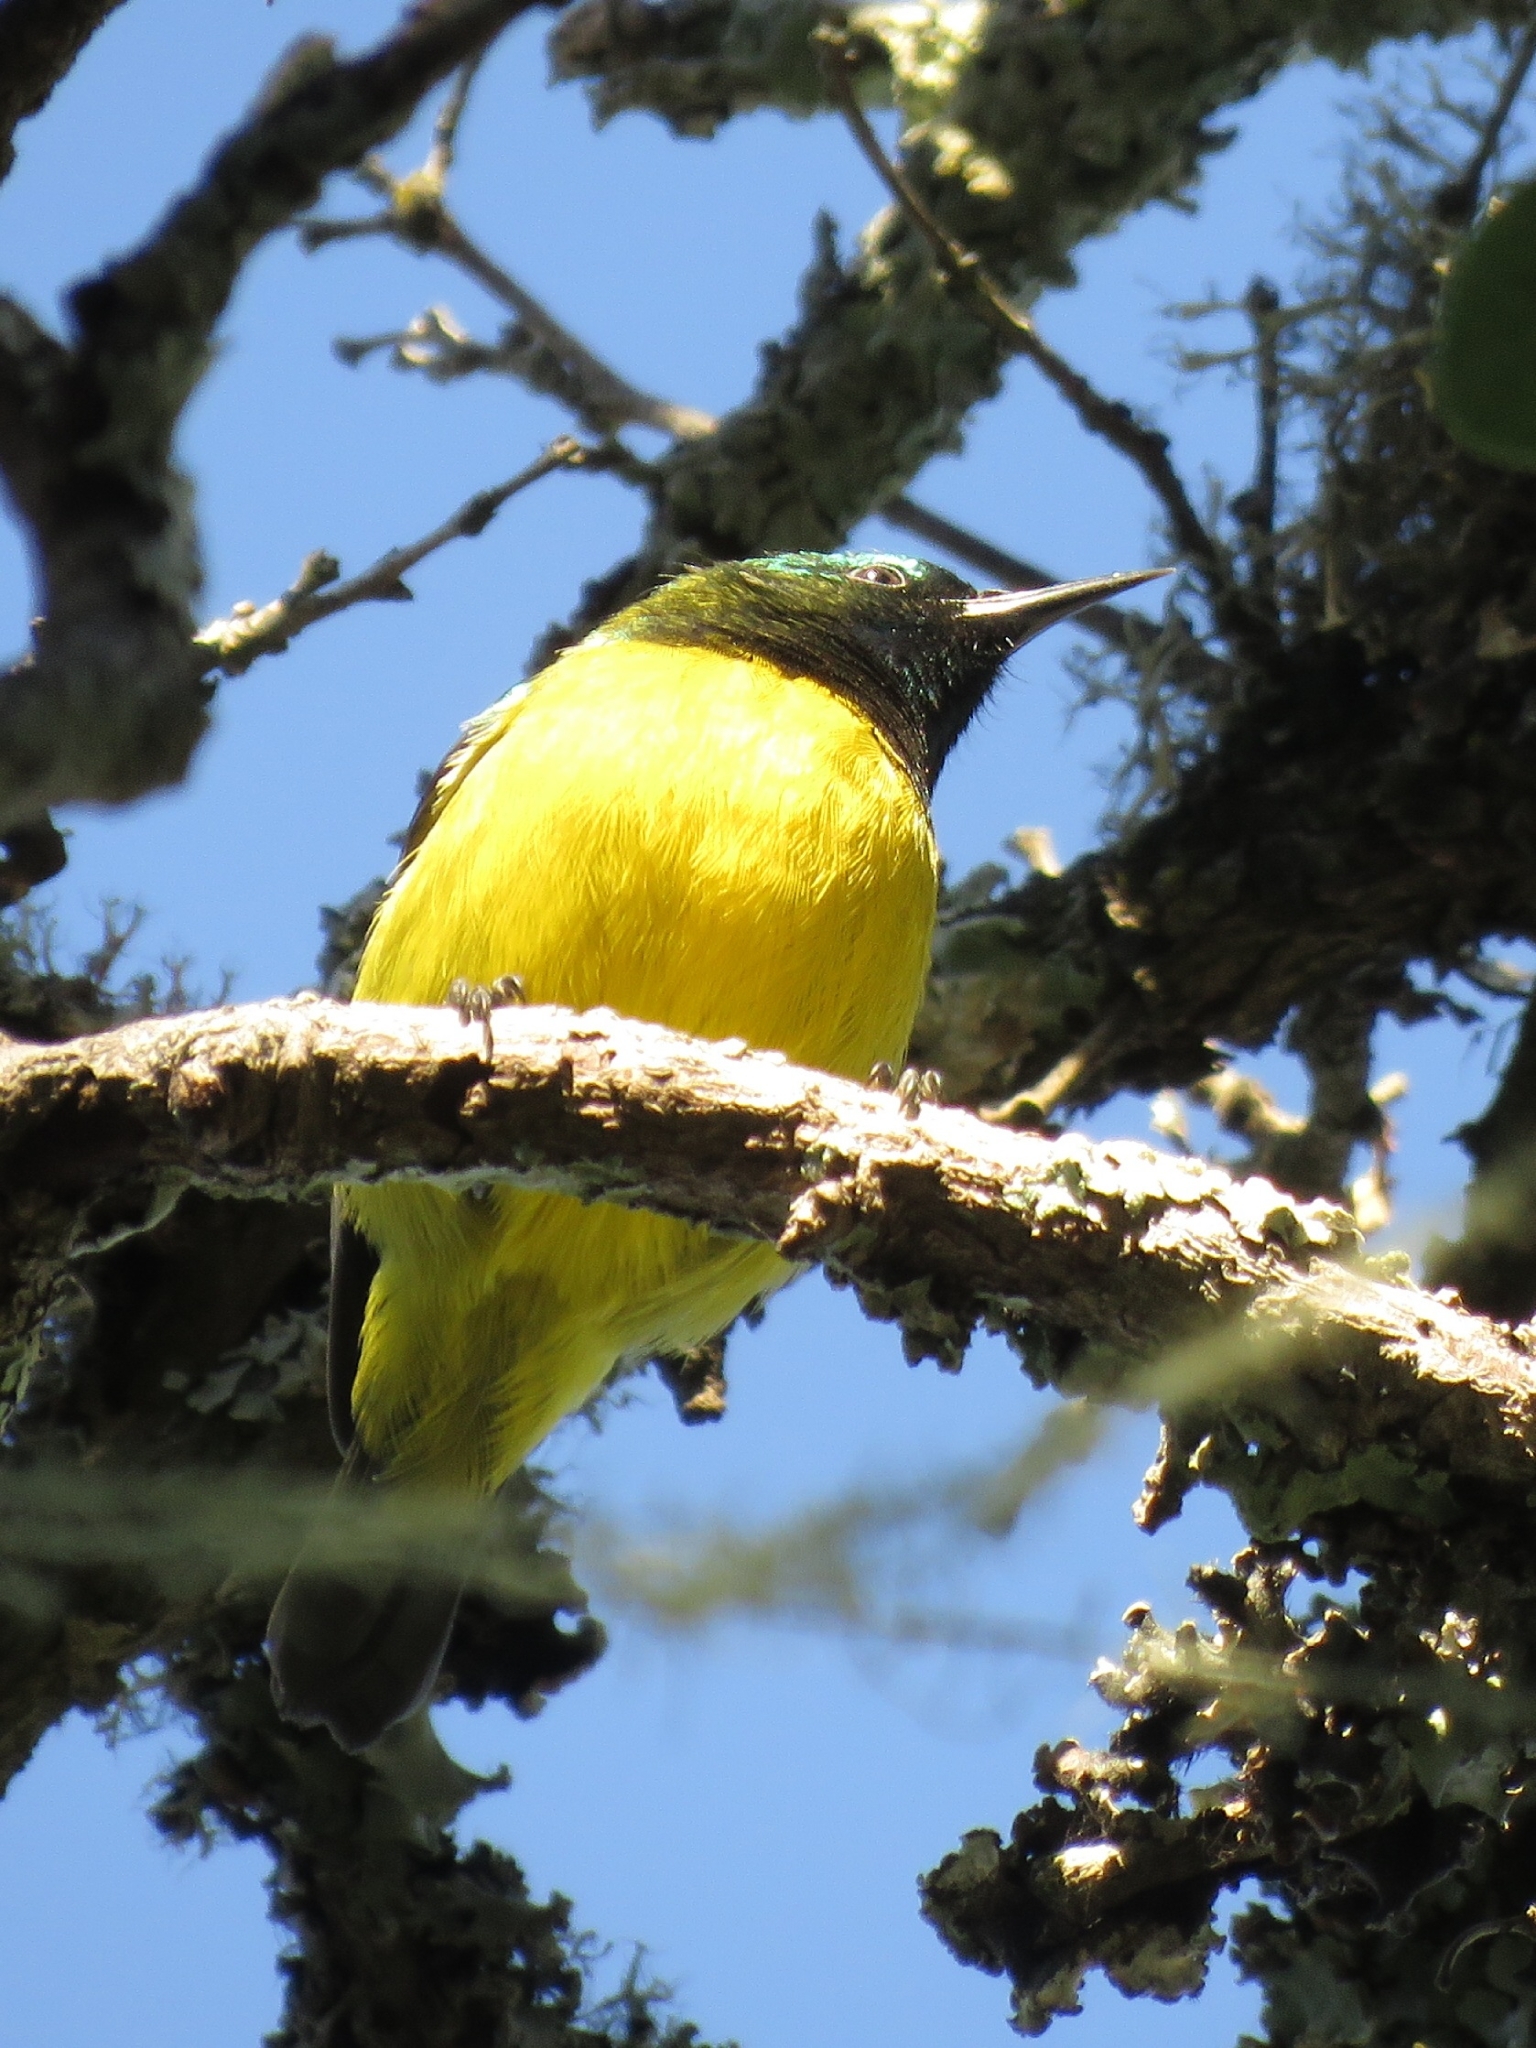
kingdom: Animalia
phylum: Chordata
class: Aves
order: Passeriformes
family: Nectariniidae
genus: Hedydipna
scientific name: Hedydipna collaris
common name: Collared sunbird
